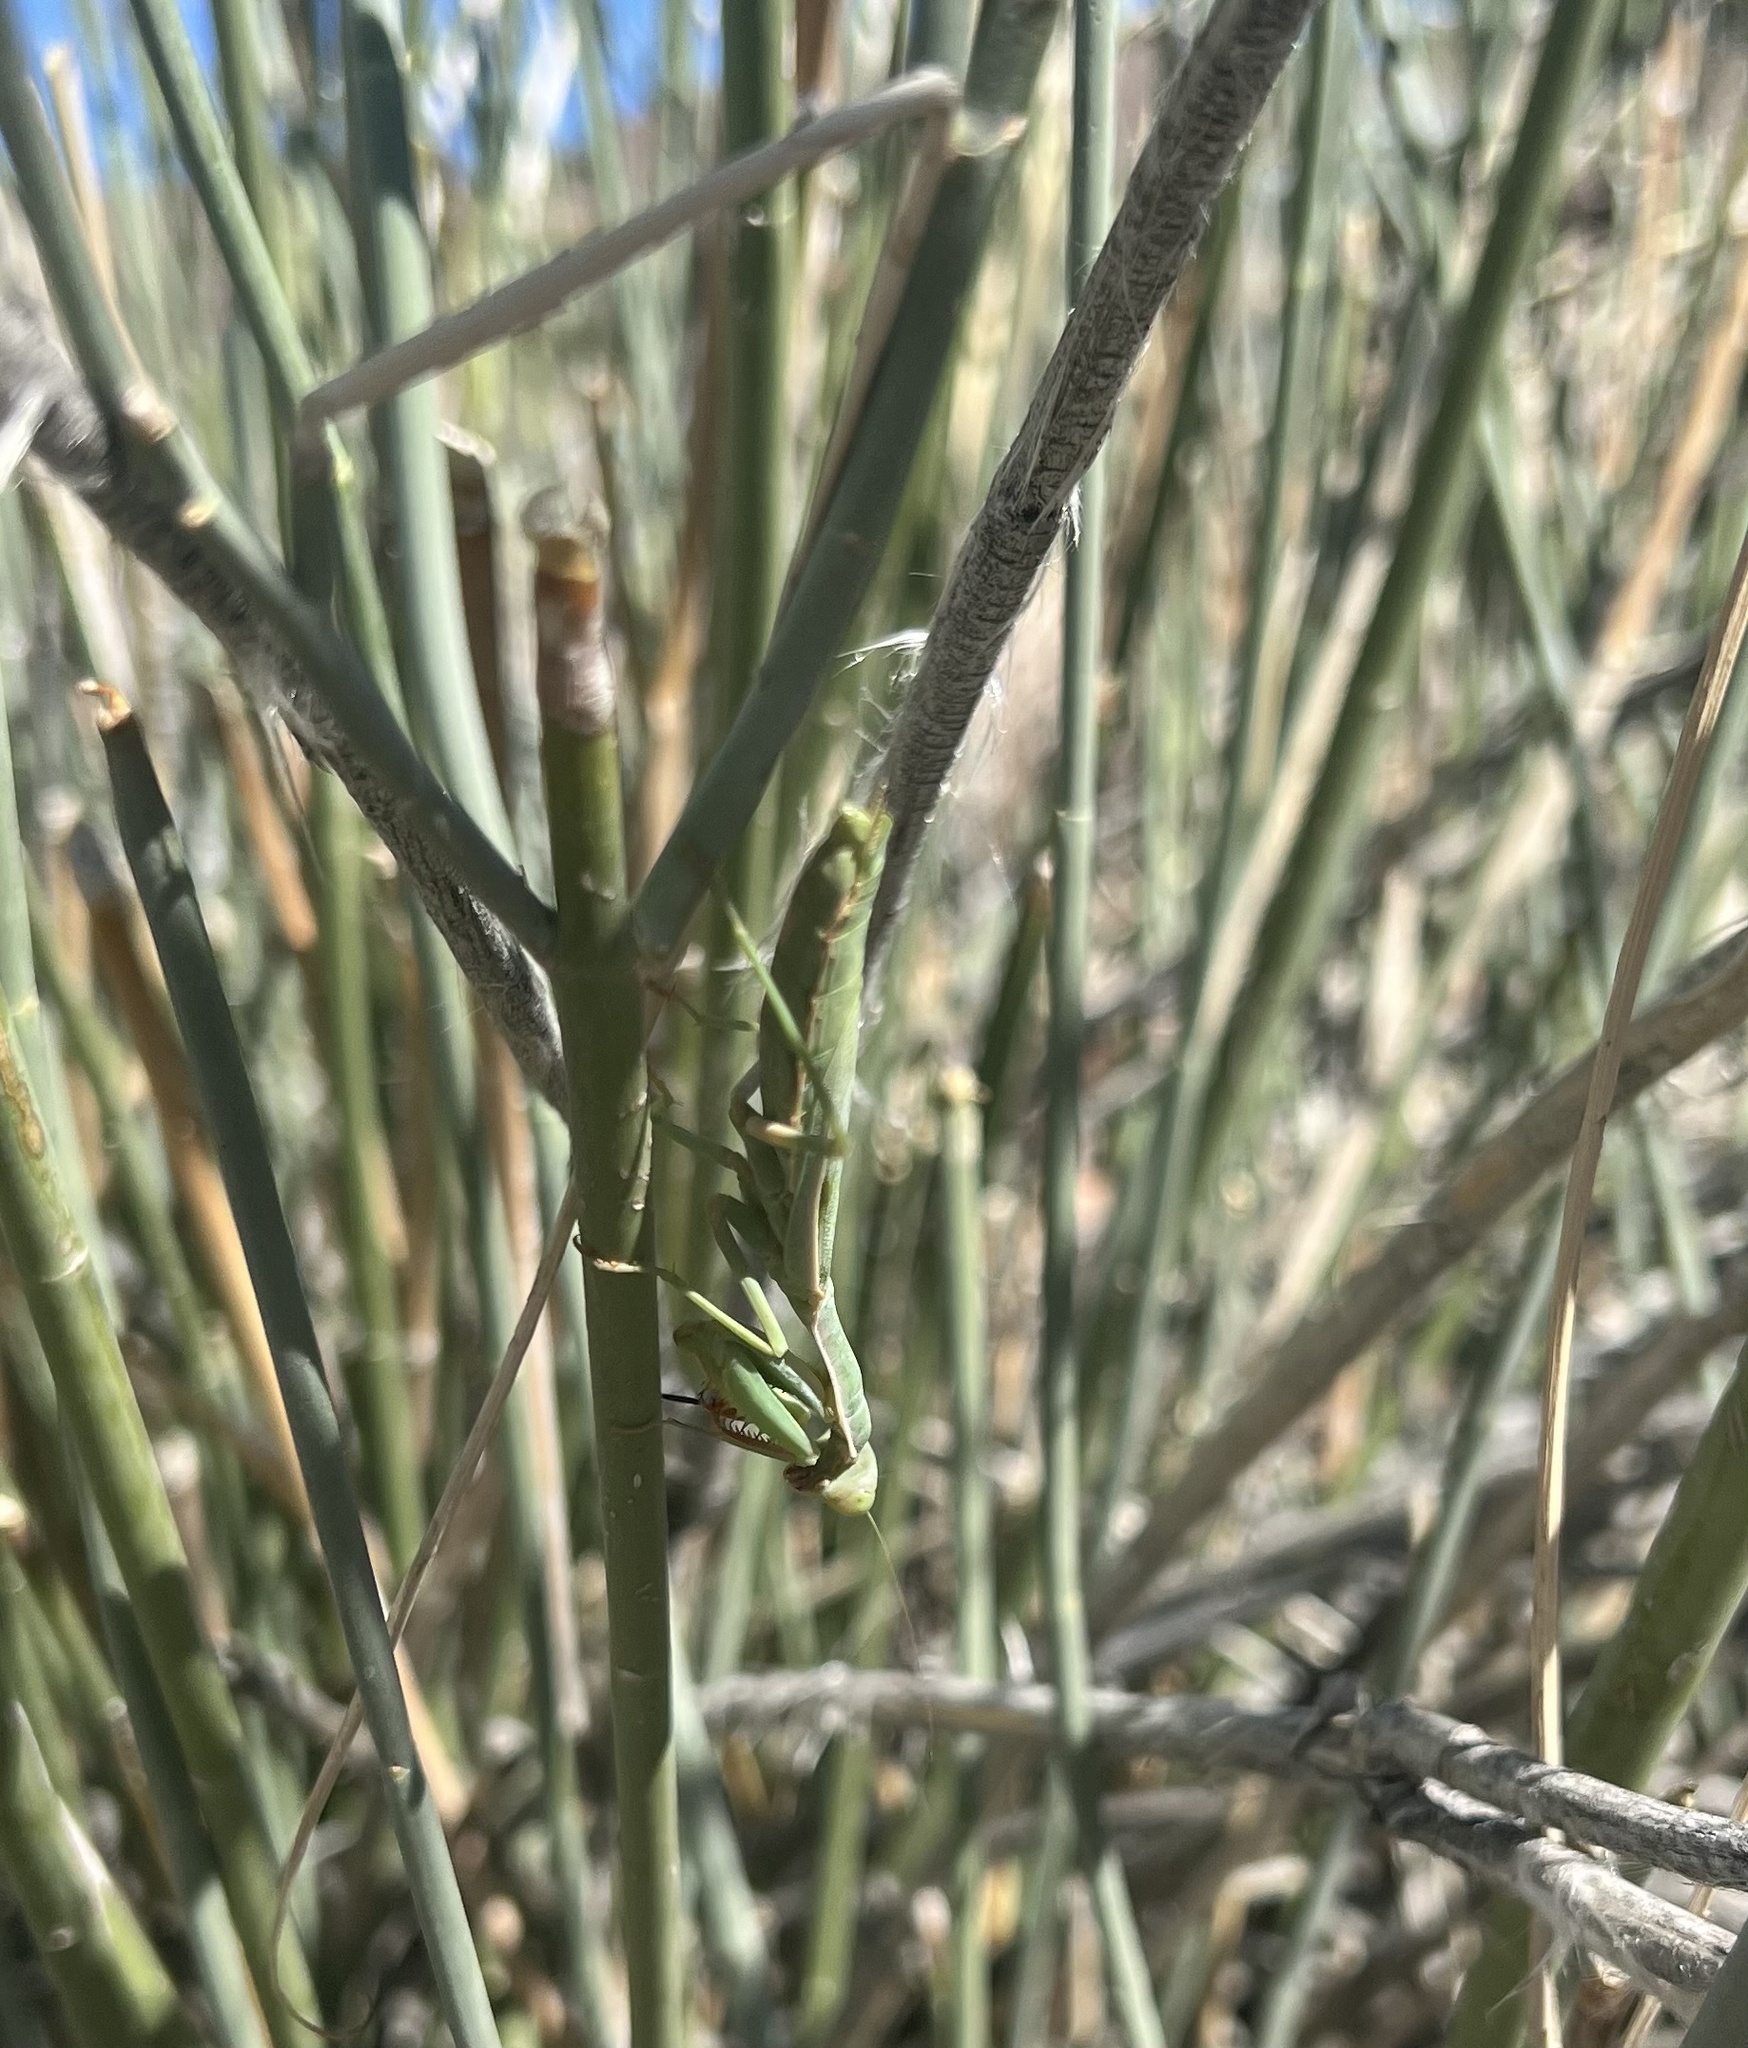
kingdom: Animalia
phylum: Arthropoda
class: Insecta
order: Mantodea
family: Eremiaphilidae
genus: Iris
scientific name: Iris oratoria
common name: Mediterranean mantis
